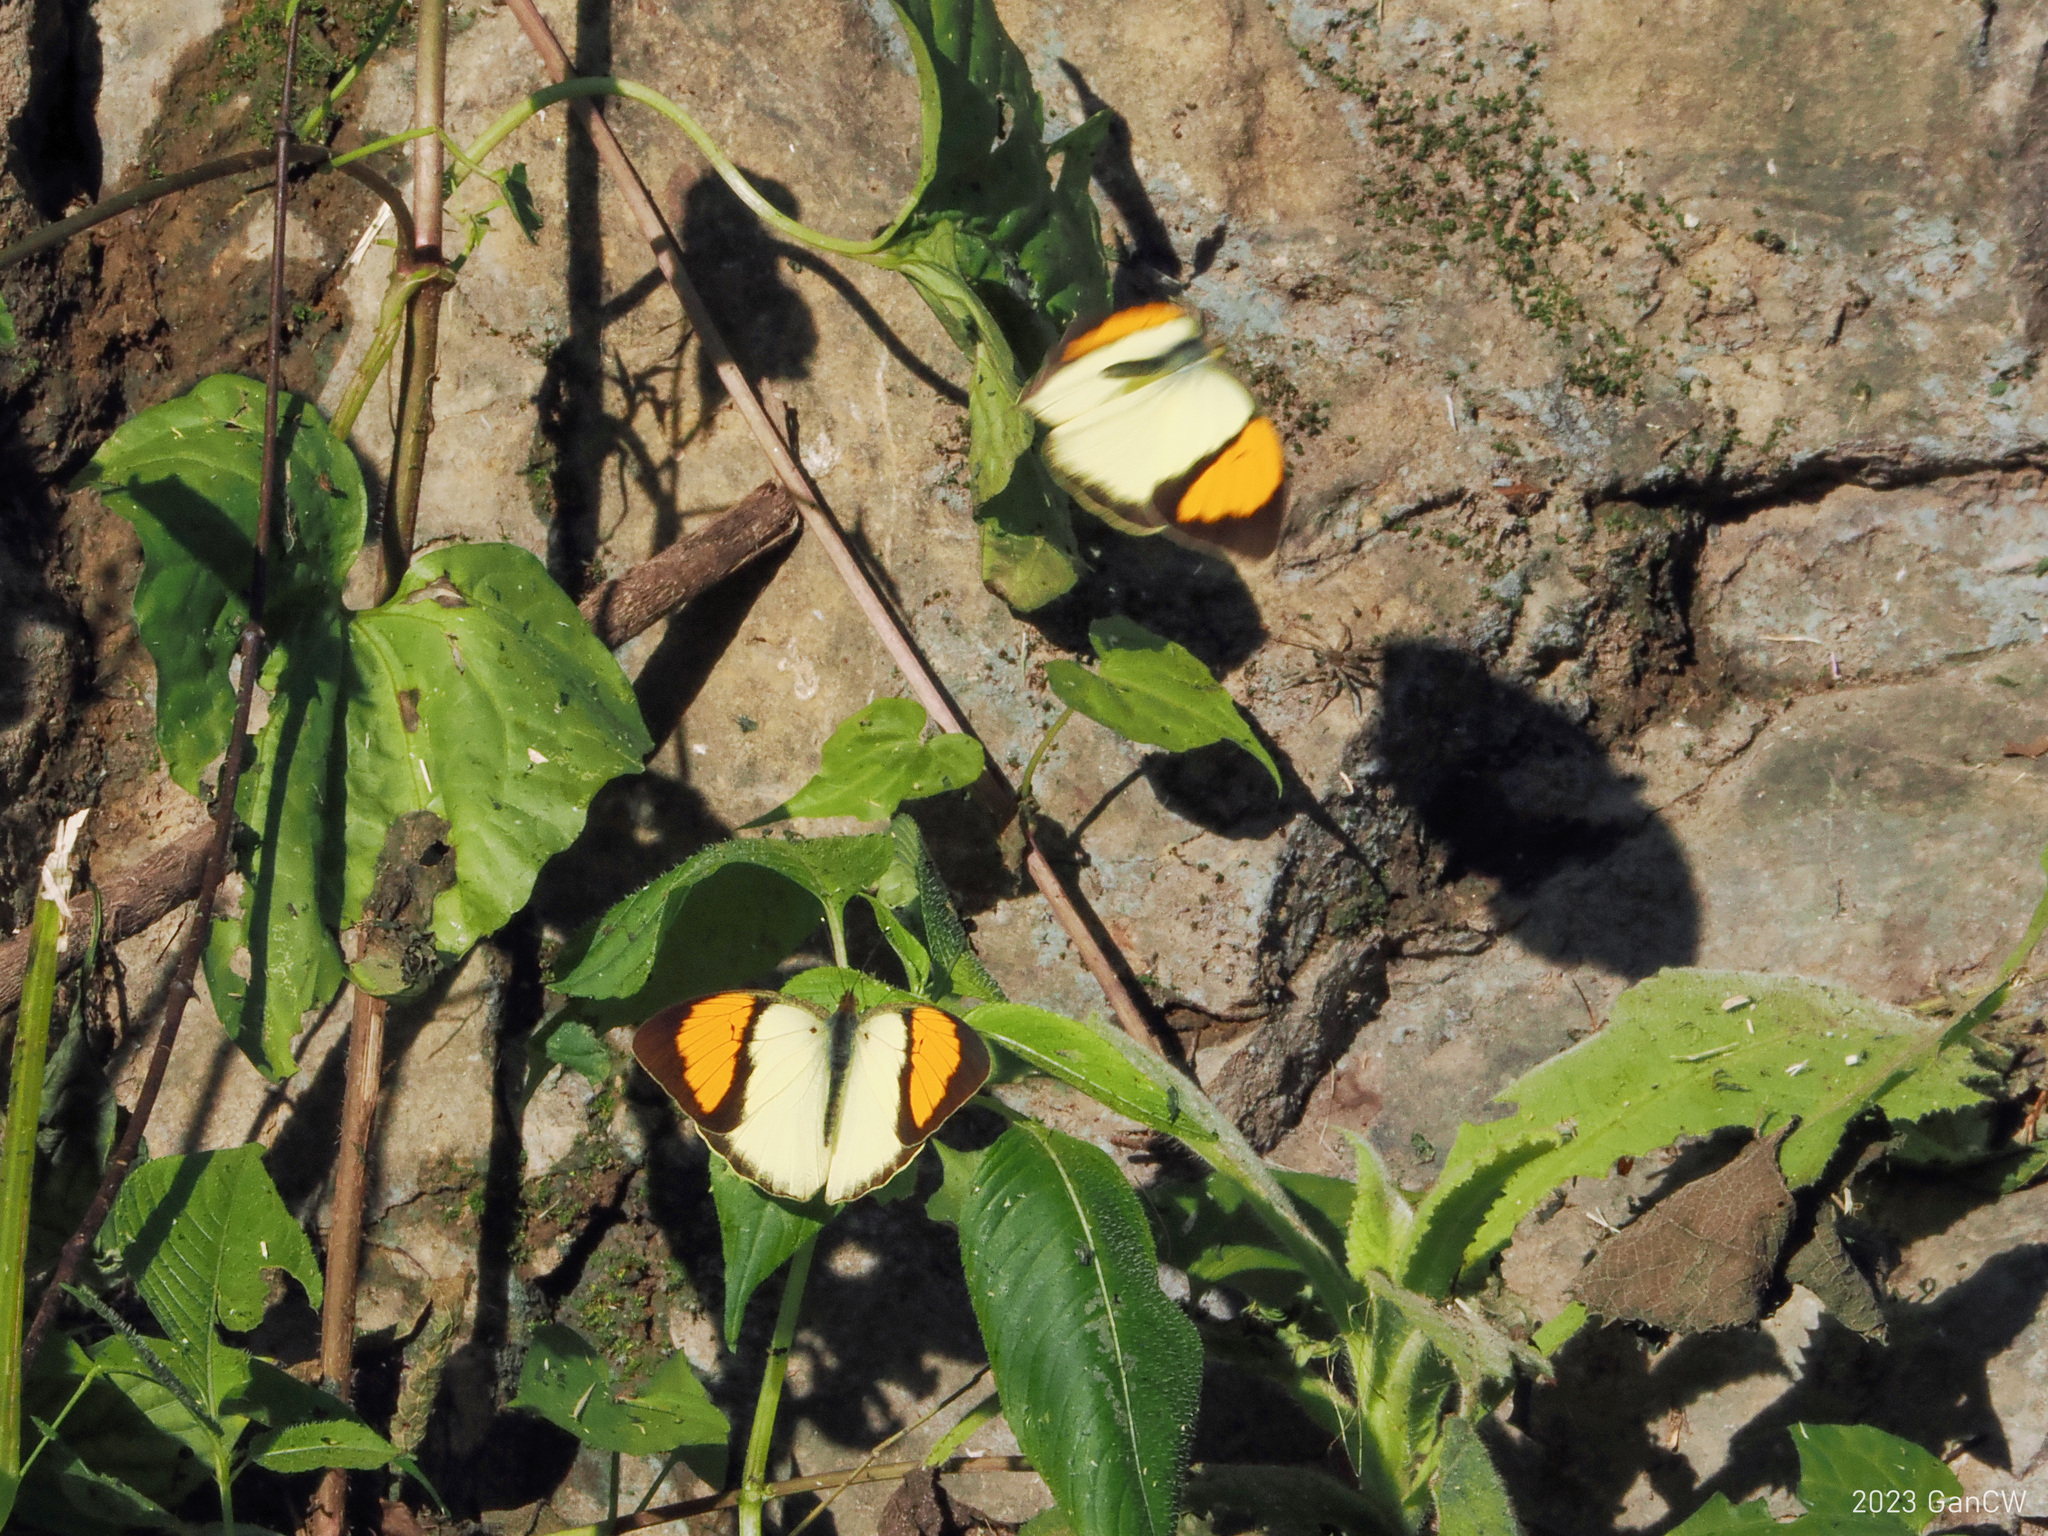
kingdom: Animalia
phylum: Arthropoda
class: Insecta
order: Lepidoptera
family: Pieridae
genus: Ixias
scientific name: Ixias pyrene
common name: Yellow orange tip
